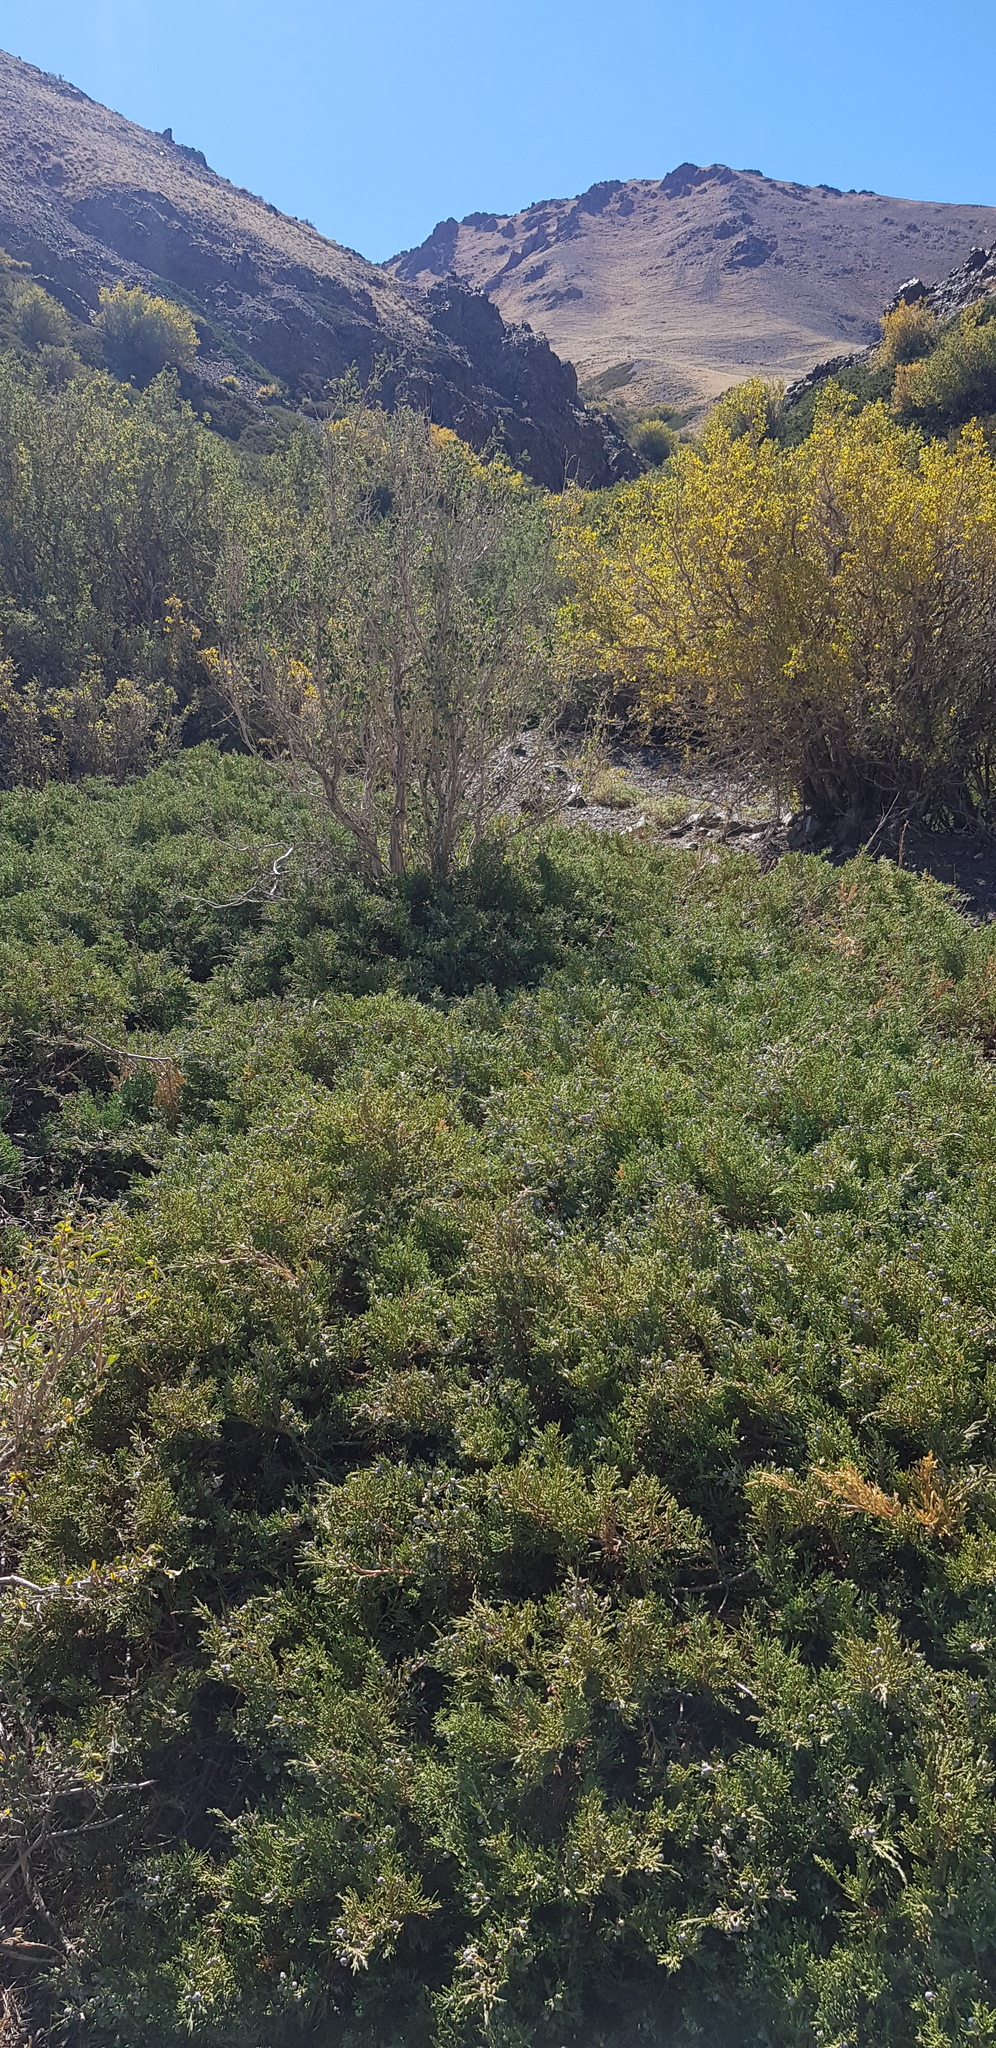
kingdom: Plantae
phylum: Tracheophyta
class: Pinopsida
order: Pinales
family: Cupressaceae
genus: Juniperus
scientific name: Juniperus pseudosabina
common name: Turkestan juniper
